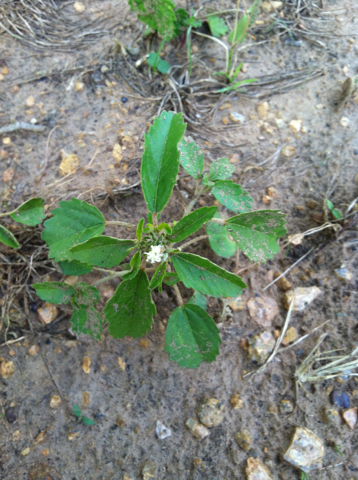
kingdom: Plantae
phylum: Tracheophyta
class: Magnoliopsida
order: Malpighiales
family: Euphorbiaceae
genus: Croton
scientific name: Croton glandulosus
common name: Tropic croton
